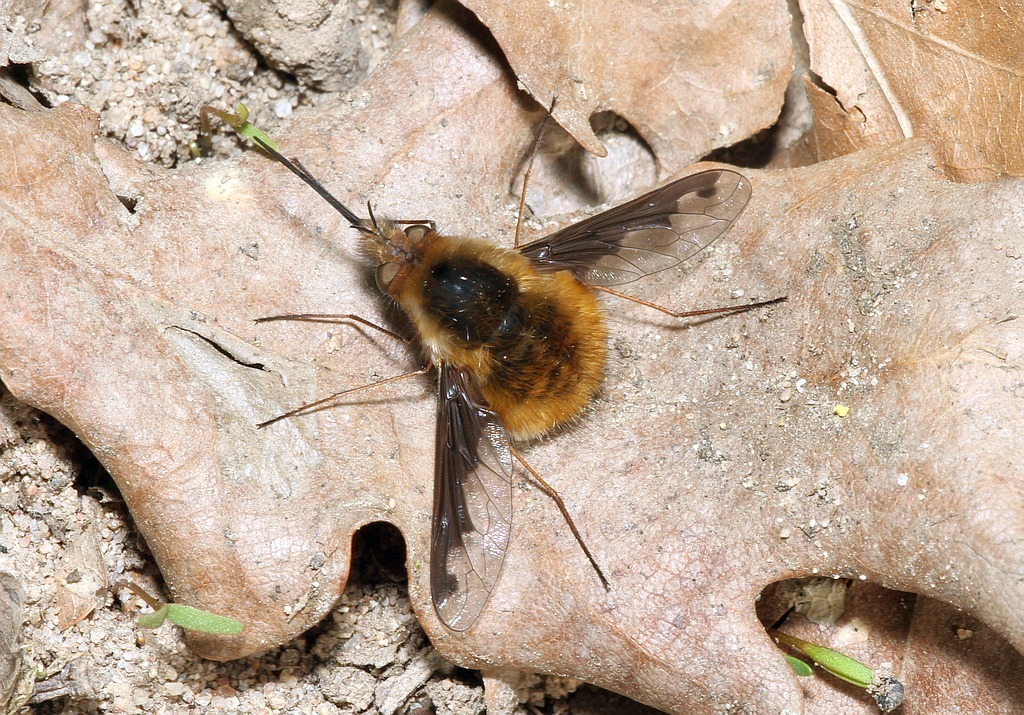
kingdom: Animalia
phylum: Arthropoda
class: Insecta
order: Diptera
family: Bombyliidae
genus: Bombylius
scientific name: Bombylius major
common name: Bee fly
